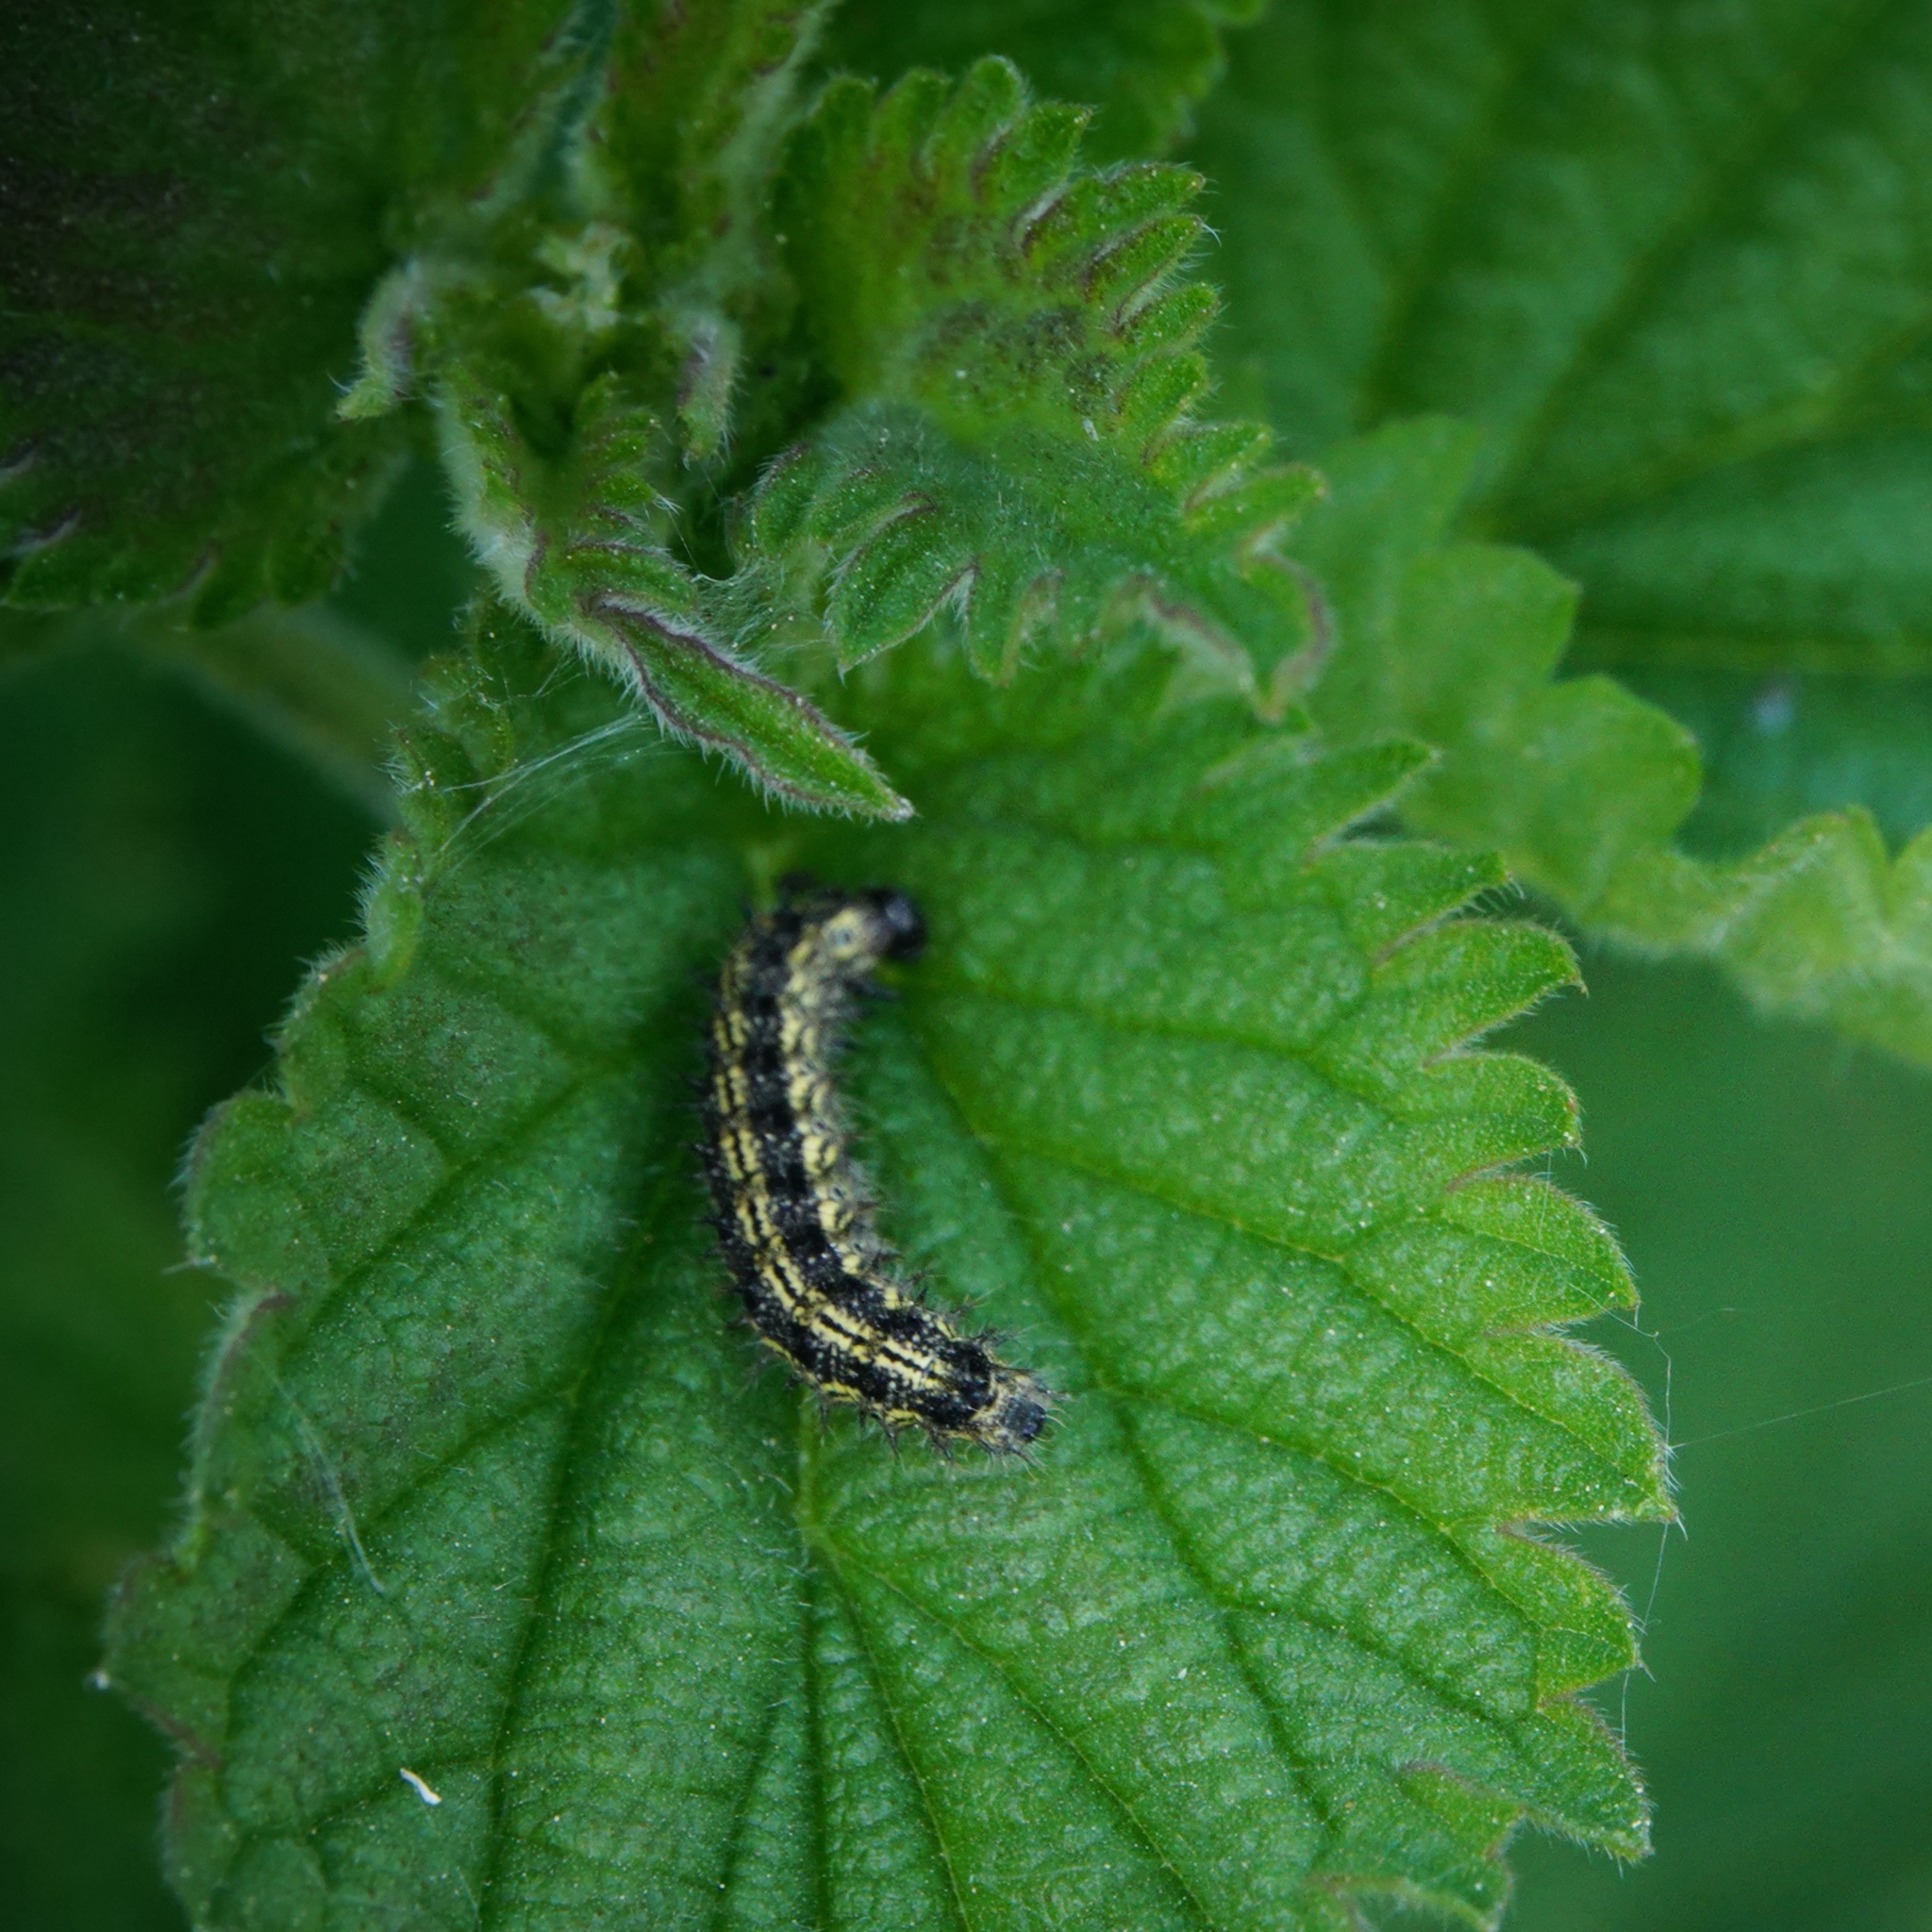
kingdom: Animalia
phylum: Arthropoda
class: Insecta
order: Lepidoptera
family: Nymphalidae
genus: Aglais
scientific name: Aglais urticae
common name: Small tortoiseshell
